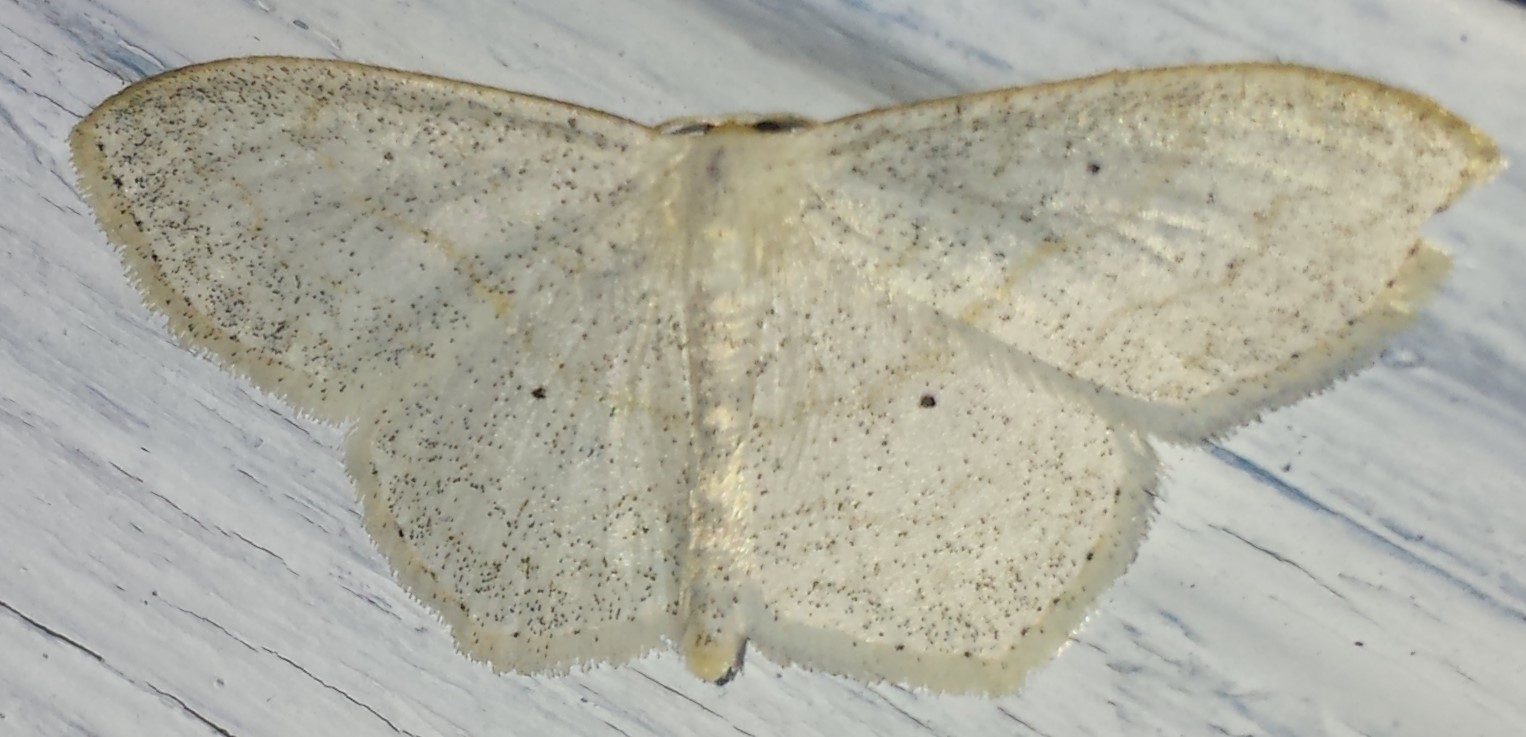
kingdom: Animalia
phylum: Arthropoda
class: Insecta
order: Lepidoptera
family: Geometridae
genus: Scopula
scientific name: Scopula limboundata
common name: Large lace border
